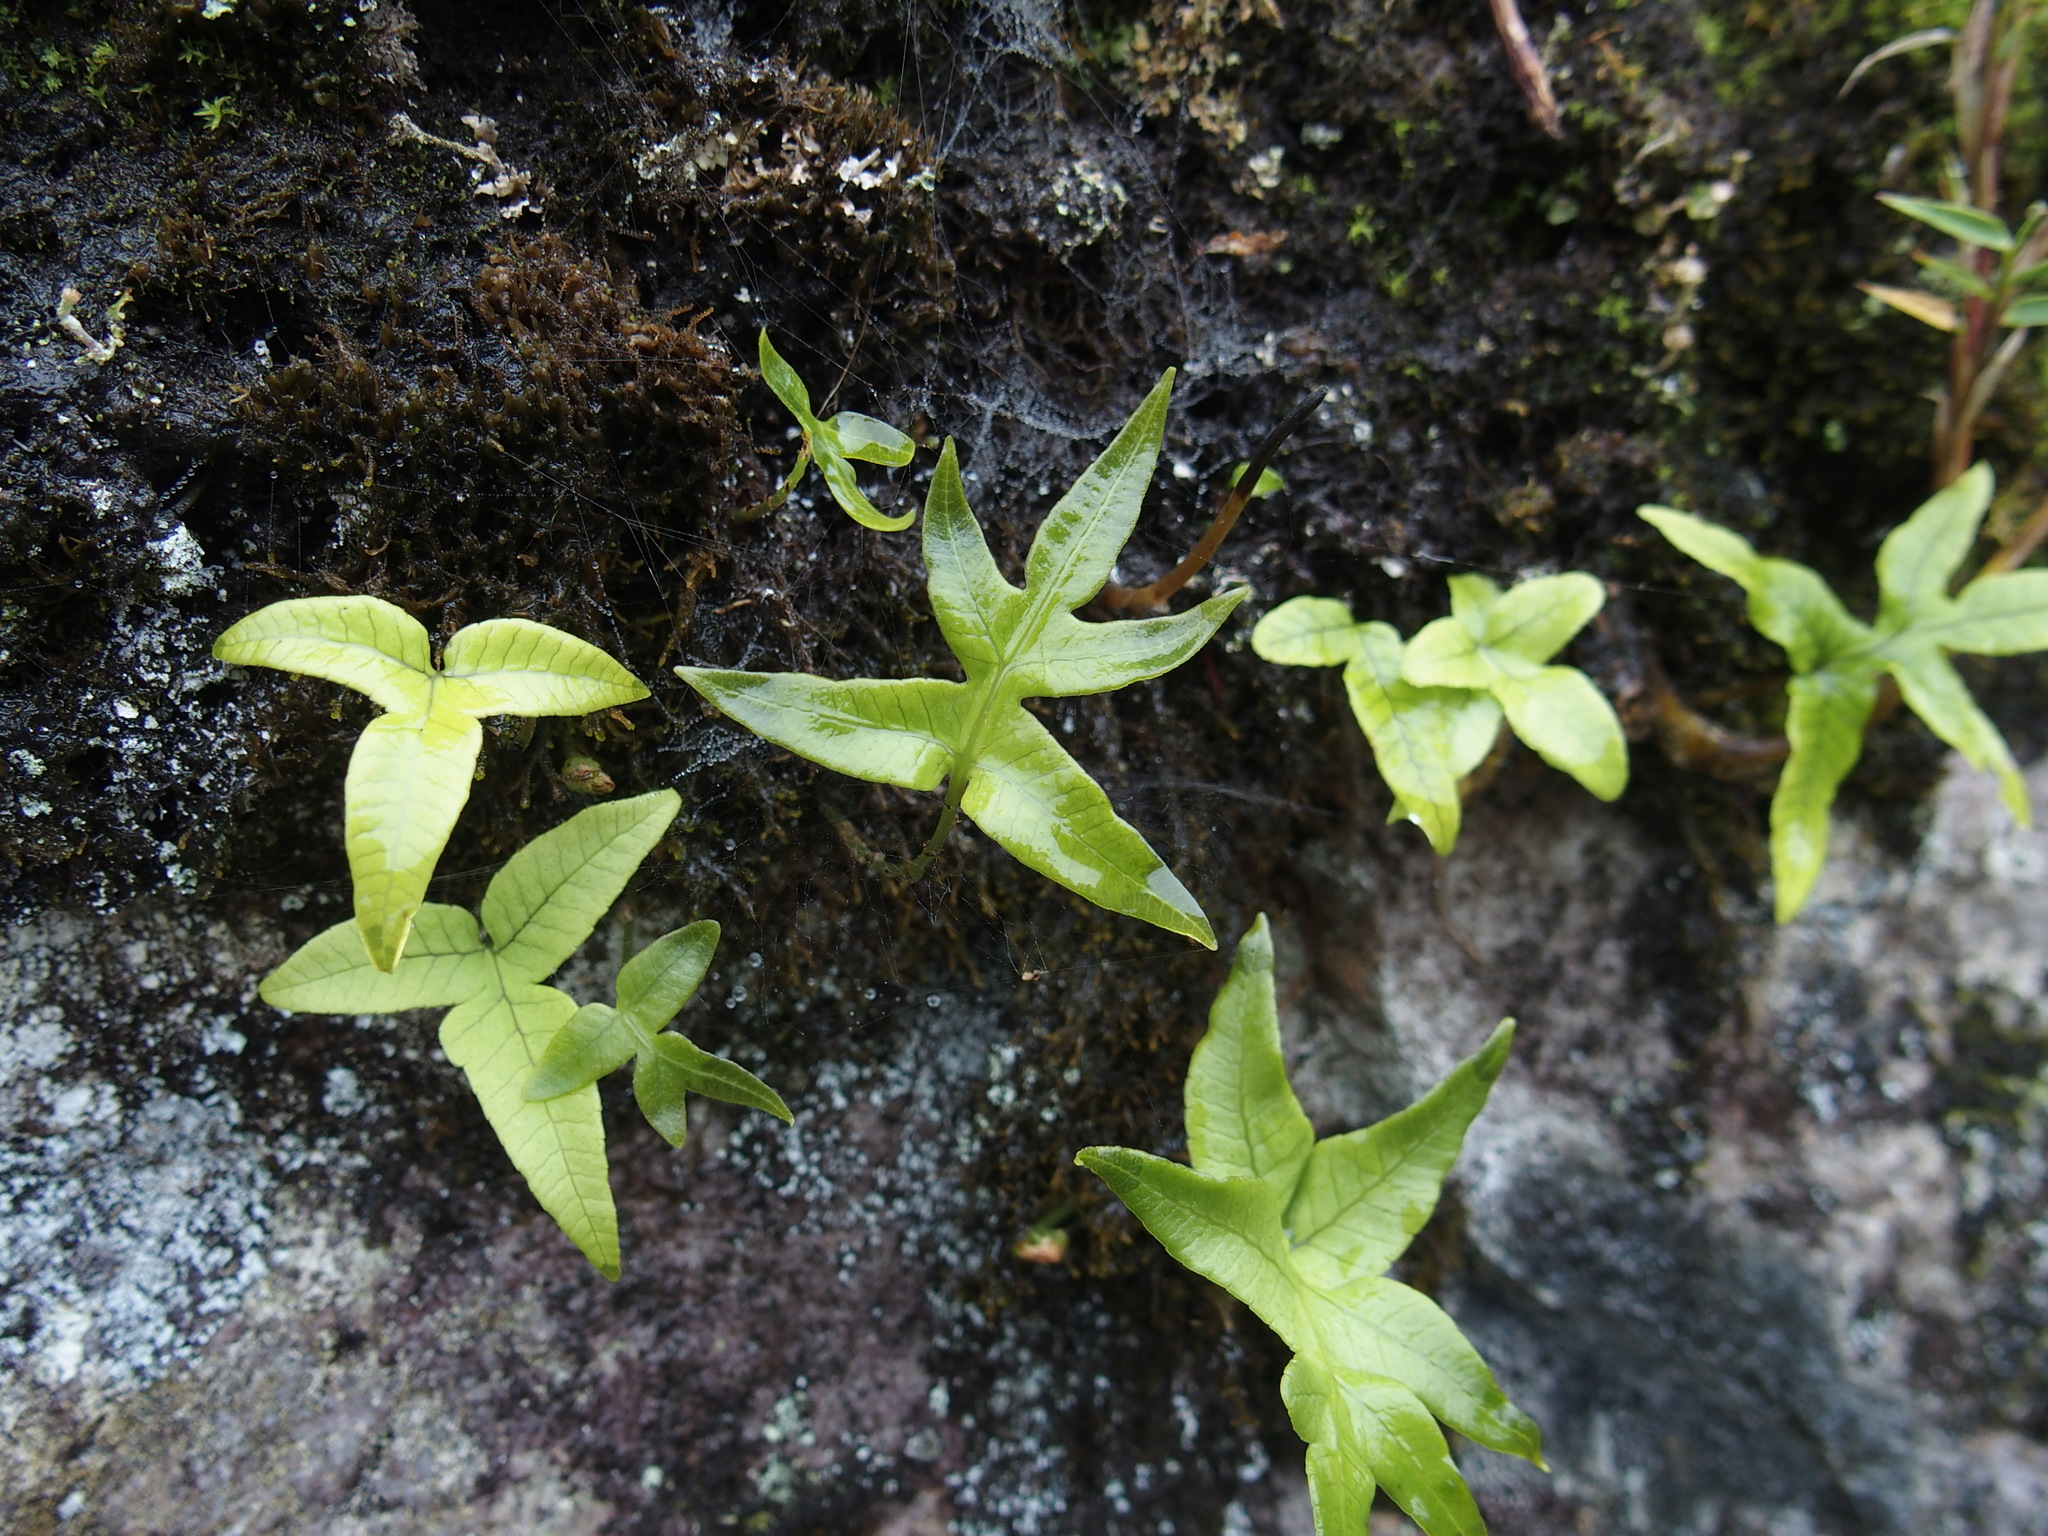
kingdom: Plantae
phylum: Tracheophyta
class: Polypodiopsida
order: Polypodiales
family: Polypodiaceae
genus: Selliguea
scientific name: Selliguea quasidivaricata
